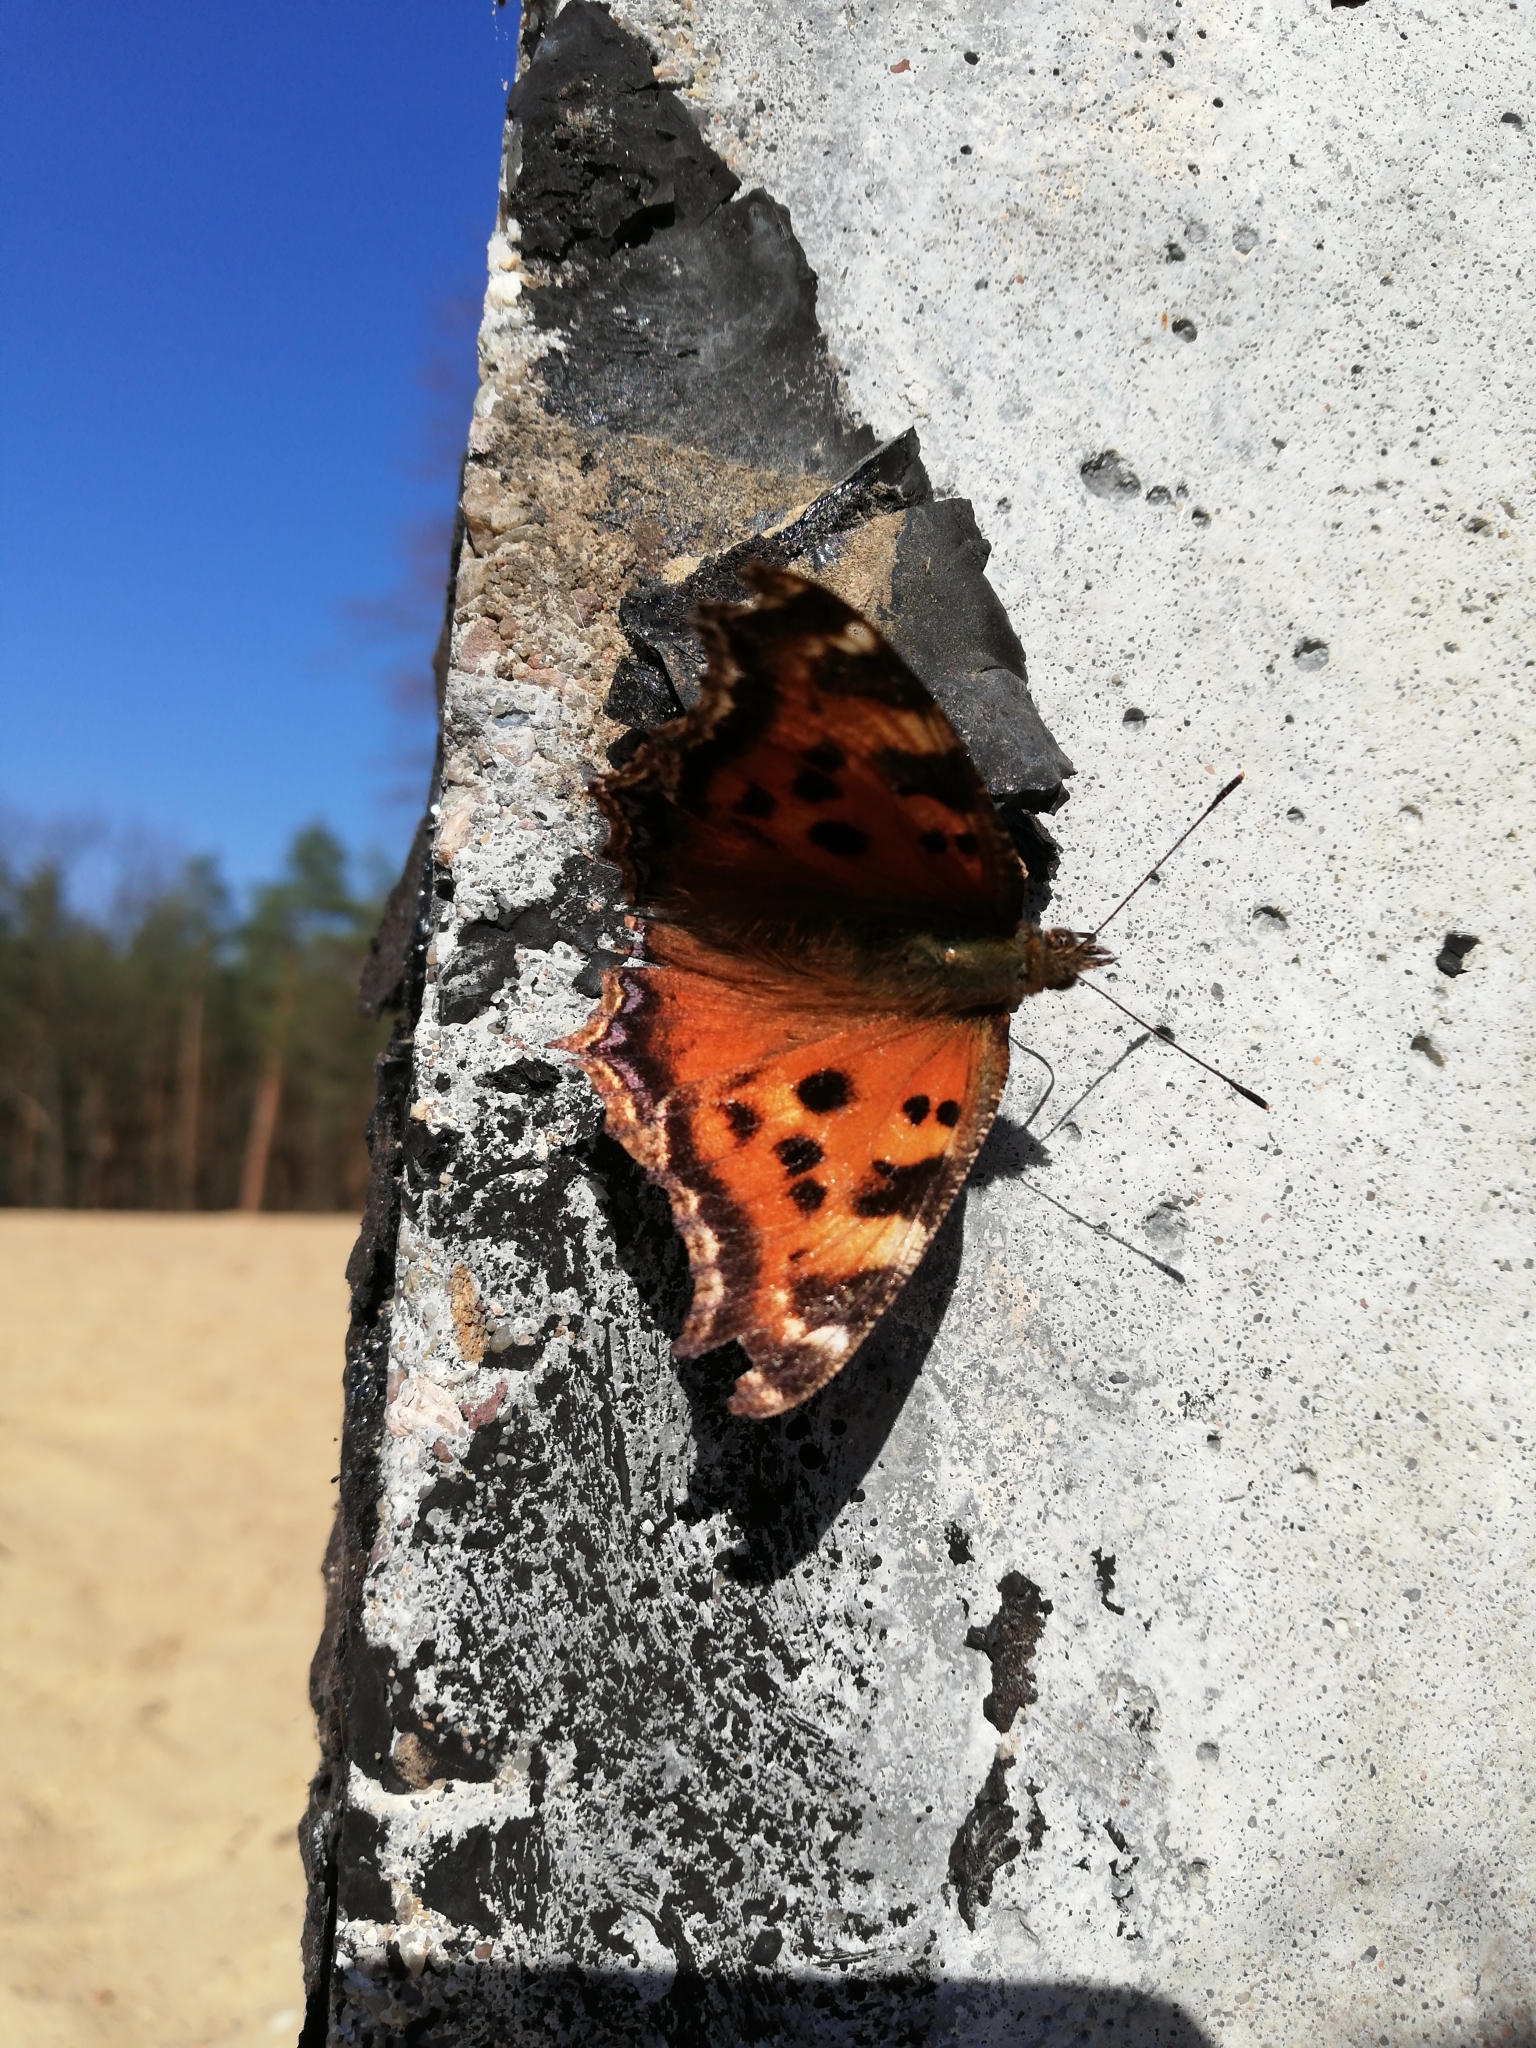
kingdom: Animalia
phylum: Arthropoda
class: Insecta
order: Lepidoptera
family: Nymphalidae
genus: Nymphalis
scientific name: Nymphalis xanthomelas
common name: Scarce tortoiseshell
